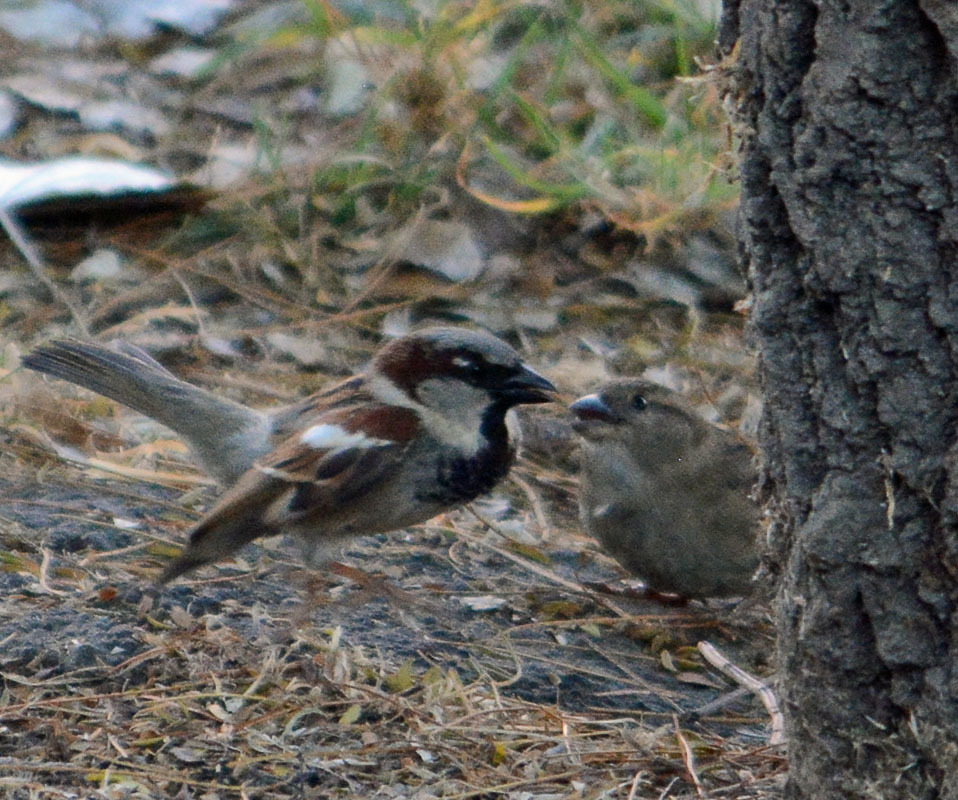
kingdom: Animalia
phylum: Chordata
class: Aves
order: Passeriformes
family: Passeridae
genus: Passer
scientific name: Passer domesticus
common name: House sparrow
